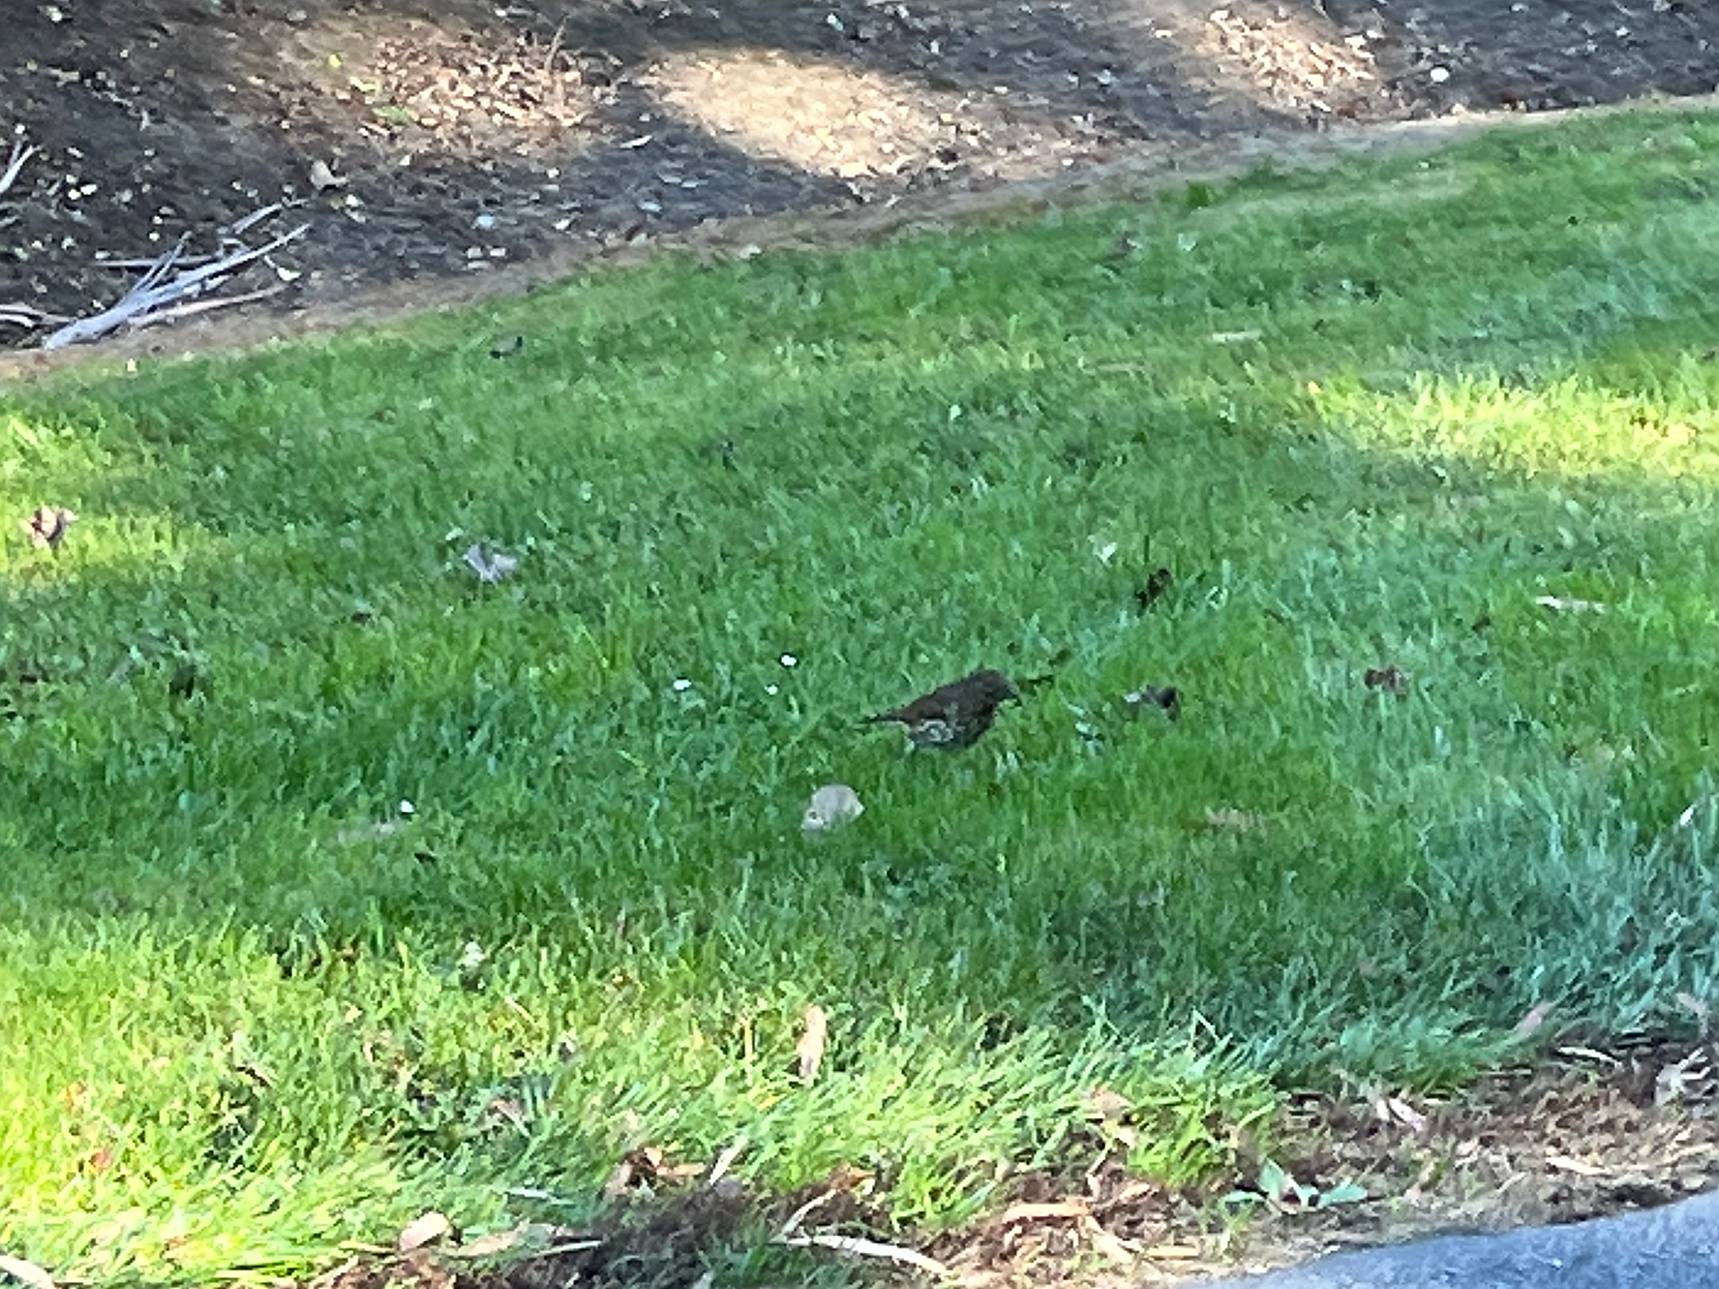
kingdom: Animalia
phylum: Chordata
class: Aves
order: Passeriformes
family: Turdidae
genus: Turdus
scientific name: Turdus philomelos
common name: Song thrush
